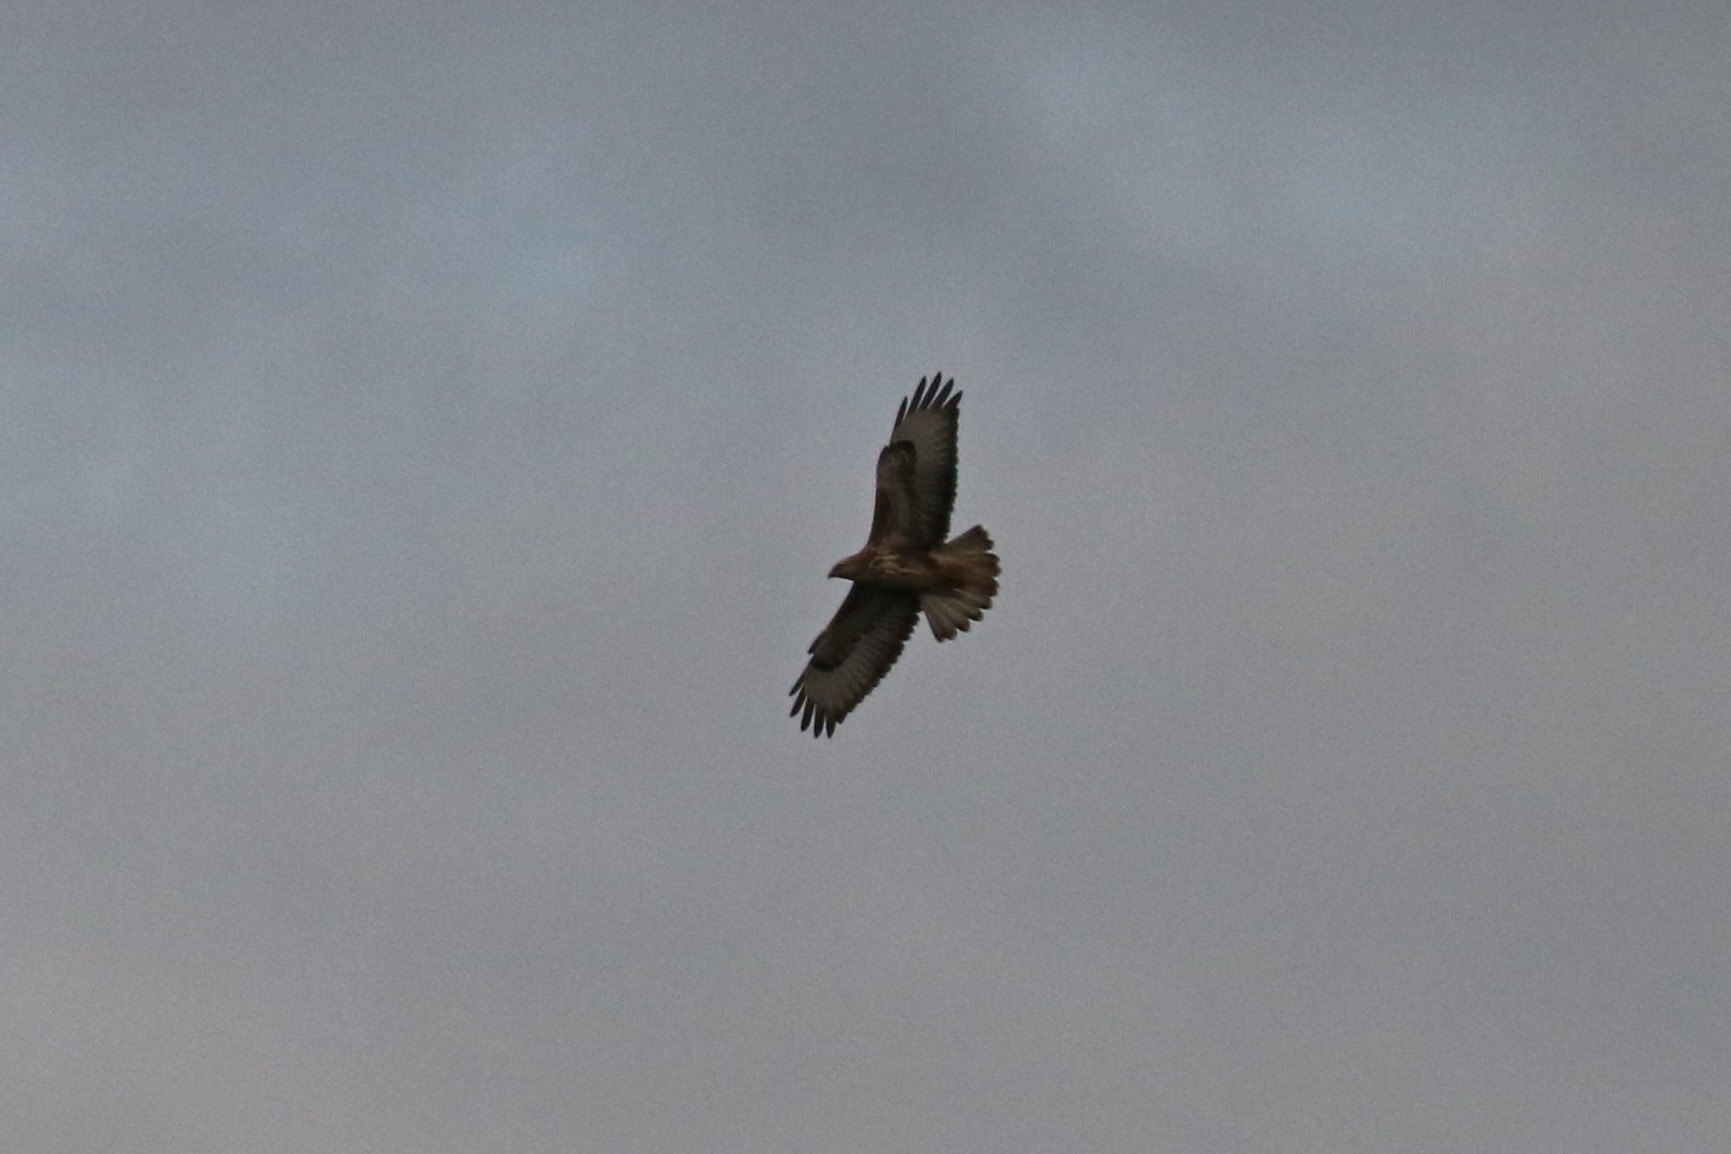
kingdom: Animalia
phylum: Chordata
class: Aves
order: Accipitriformes
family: Accipitridae
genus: Buteo
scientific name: Buteo buteo
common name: Common buzzard
